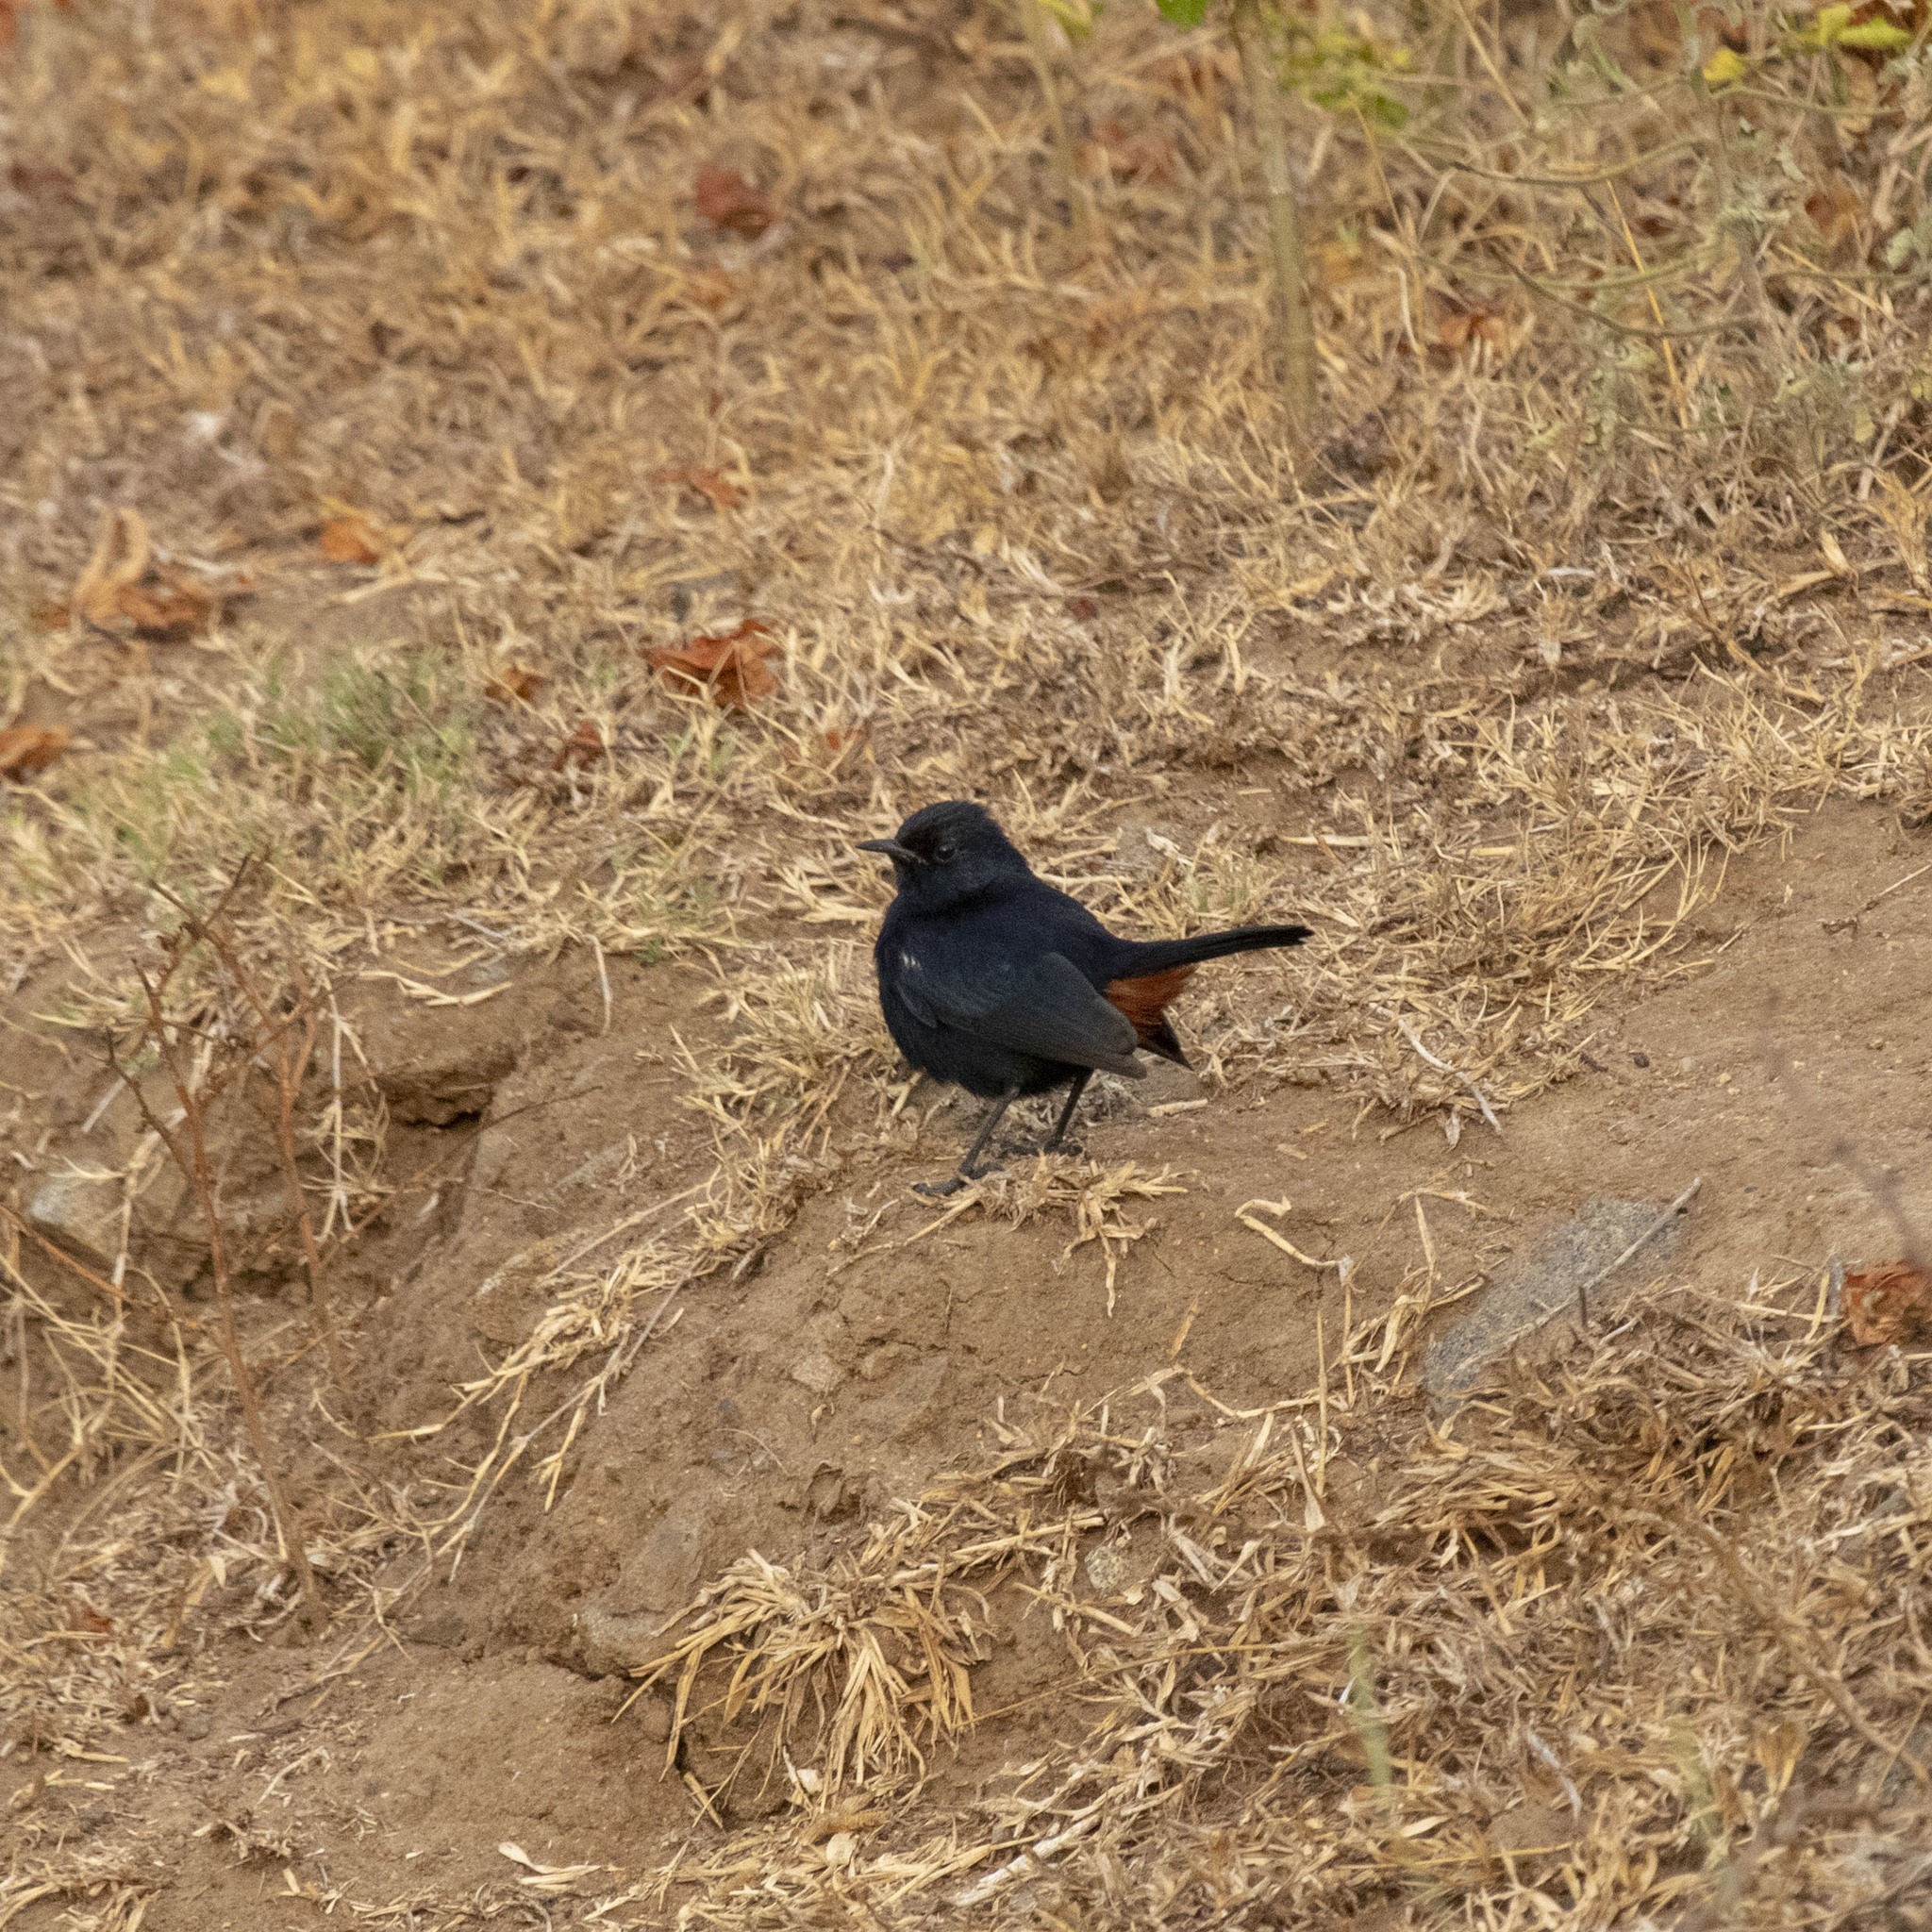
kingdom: Animalia
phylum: Chordata
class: Aves
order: Passeriformes
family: Muscicapidae
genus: Saxicoloides
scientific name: Saxicoloides fulicatus
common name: Indian robin
